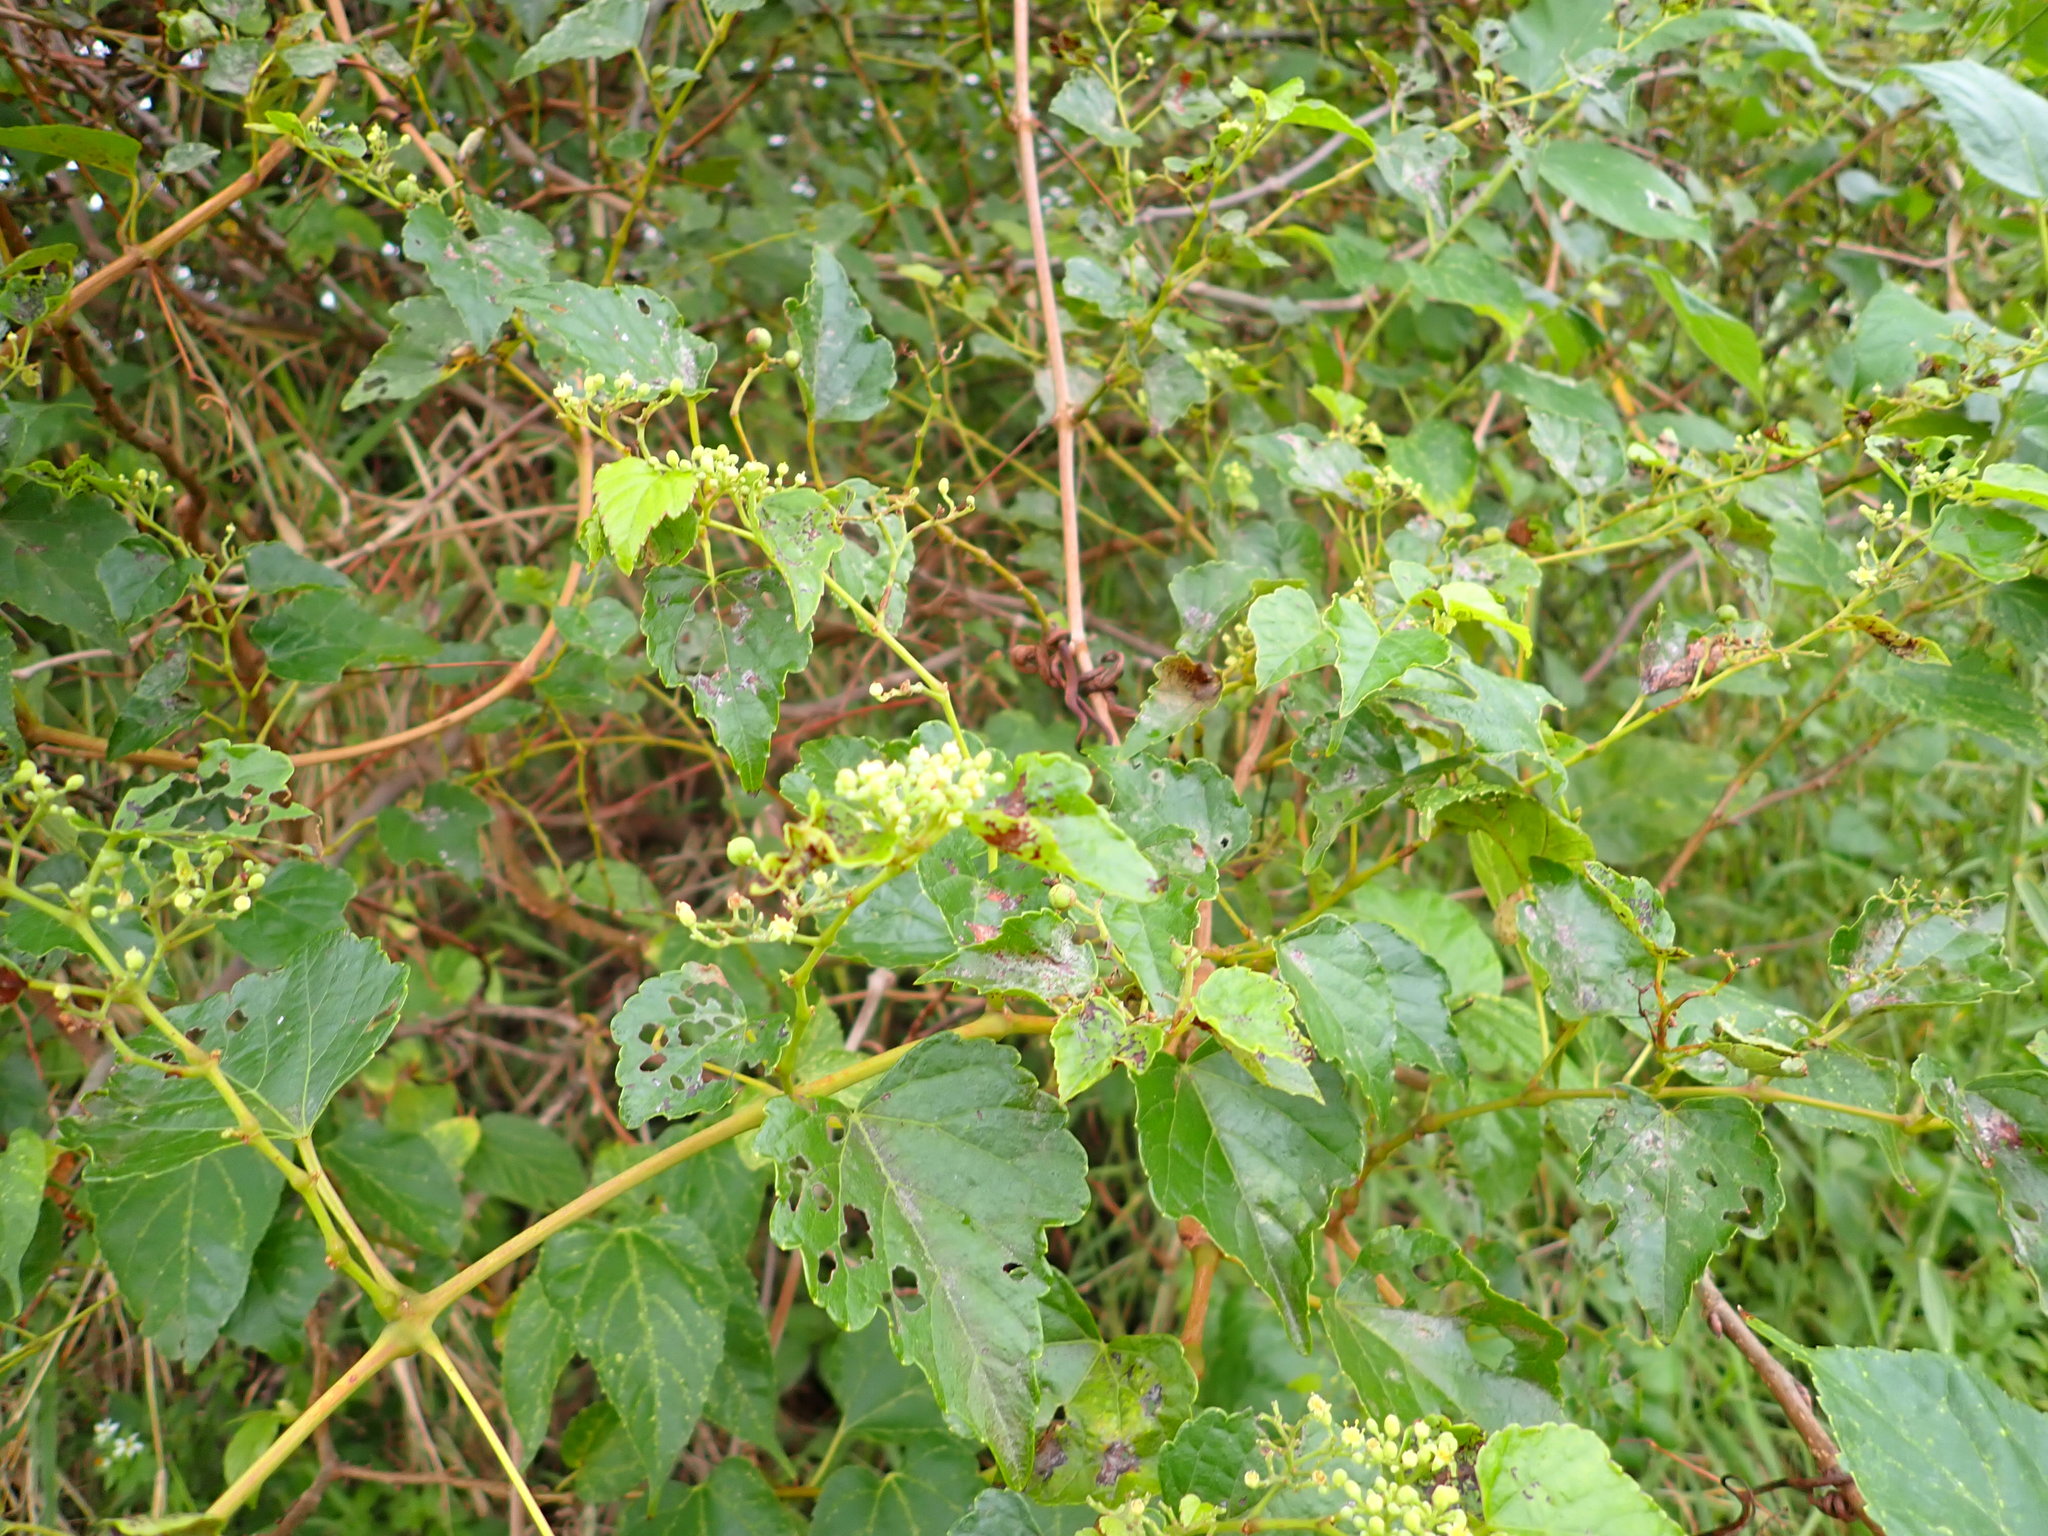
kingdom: Plantae
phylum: Tracheophyta
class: Magnoliopsida
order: Vitales
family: Vitaceae
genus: Ampelopsis
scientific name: Ampelopsis glandulosa
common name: Amur peppervine
